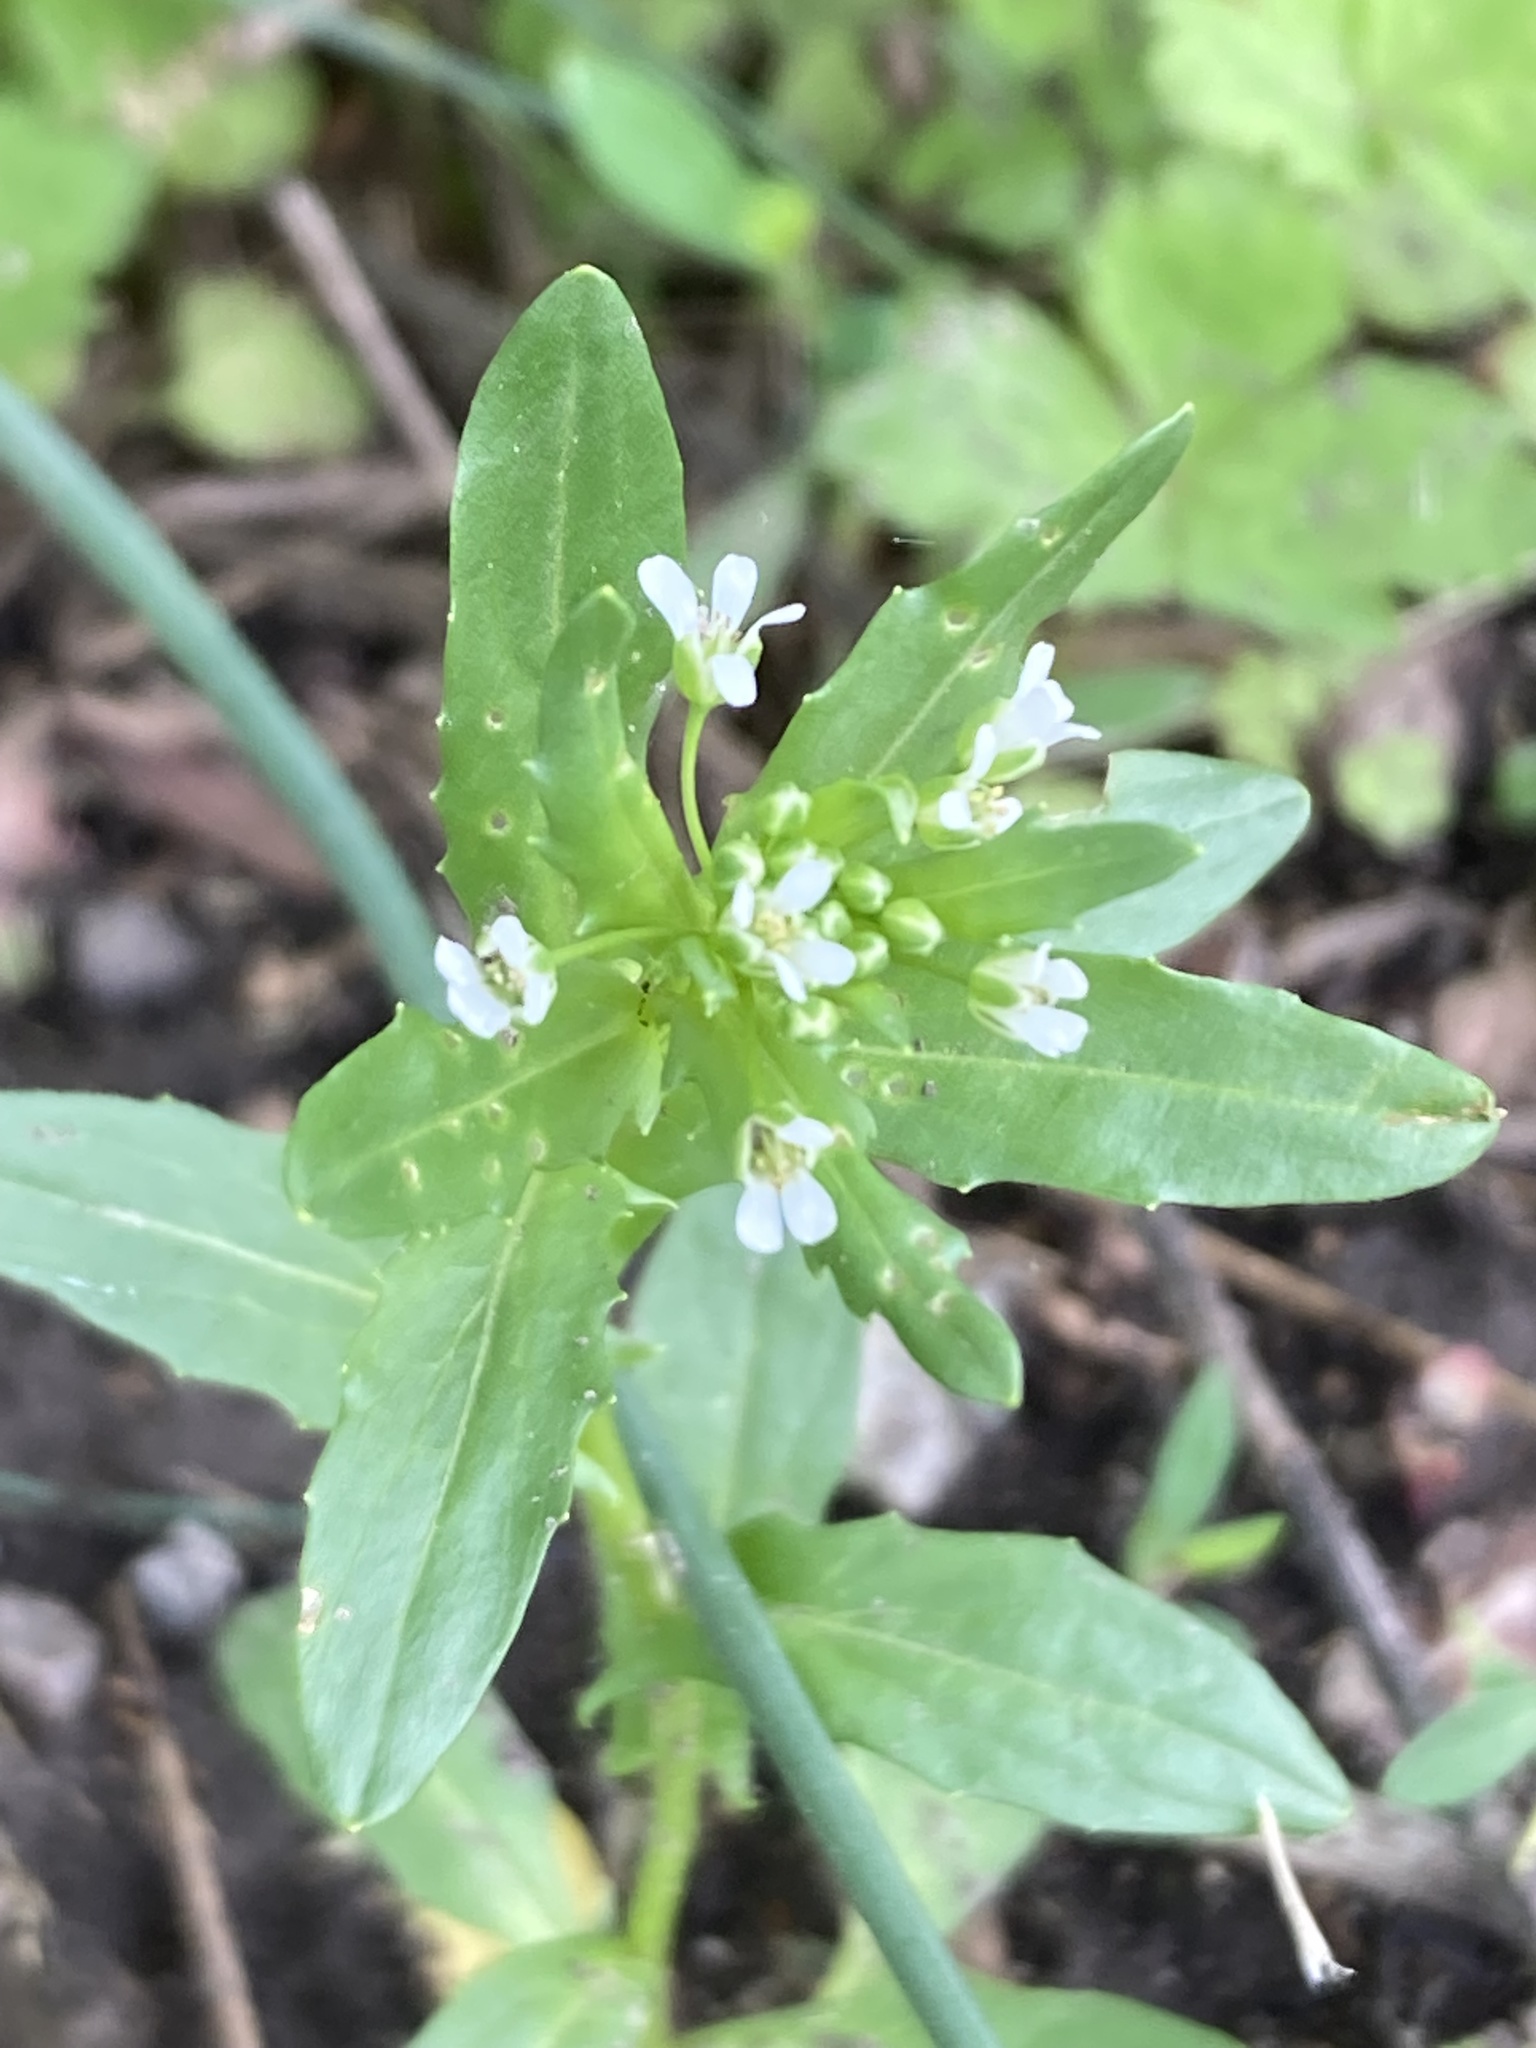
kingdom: Plantae
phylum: Tracheophyta
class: Magnoliopsida
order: Brassicales
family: Brassicaceae
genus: Thlaspi
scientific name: Thlaspi arvense
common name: Field pennycress
